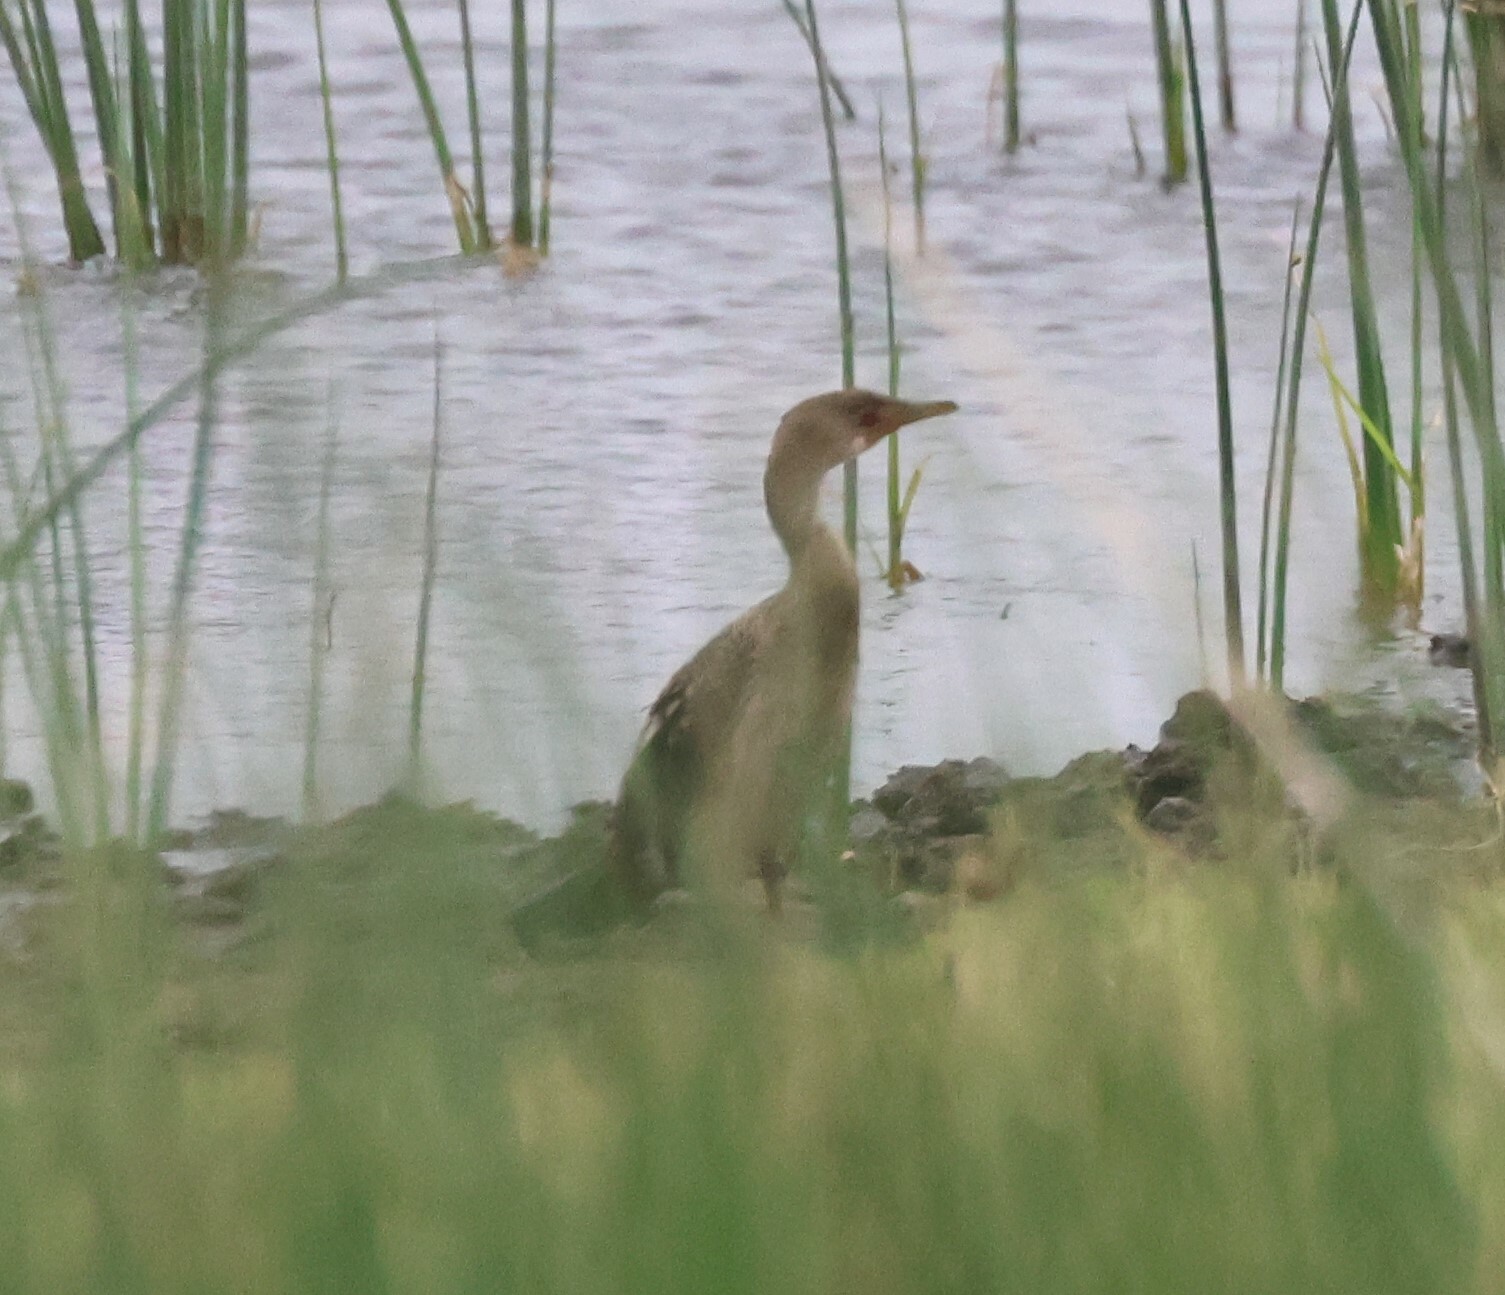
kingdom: Animalia
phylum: Chordata
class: Aves
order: Suliformes
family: Phalacrocoracidae
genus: Microcarbo
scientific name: Microcarbo africanus
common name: Long-tailed cormorant
